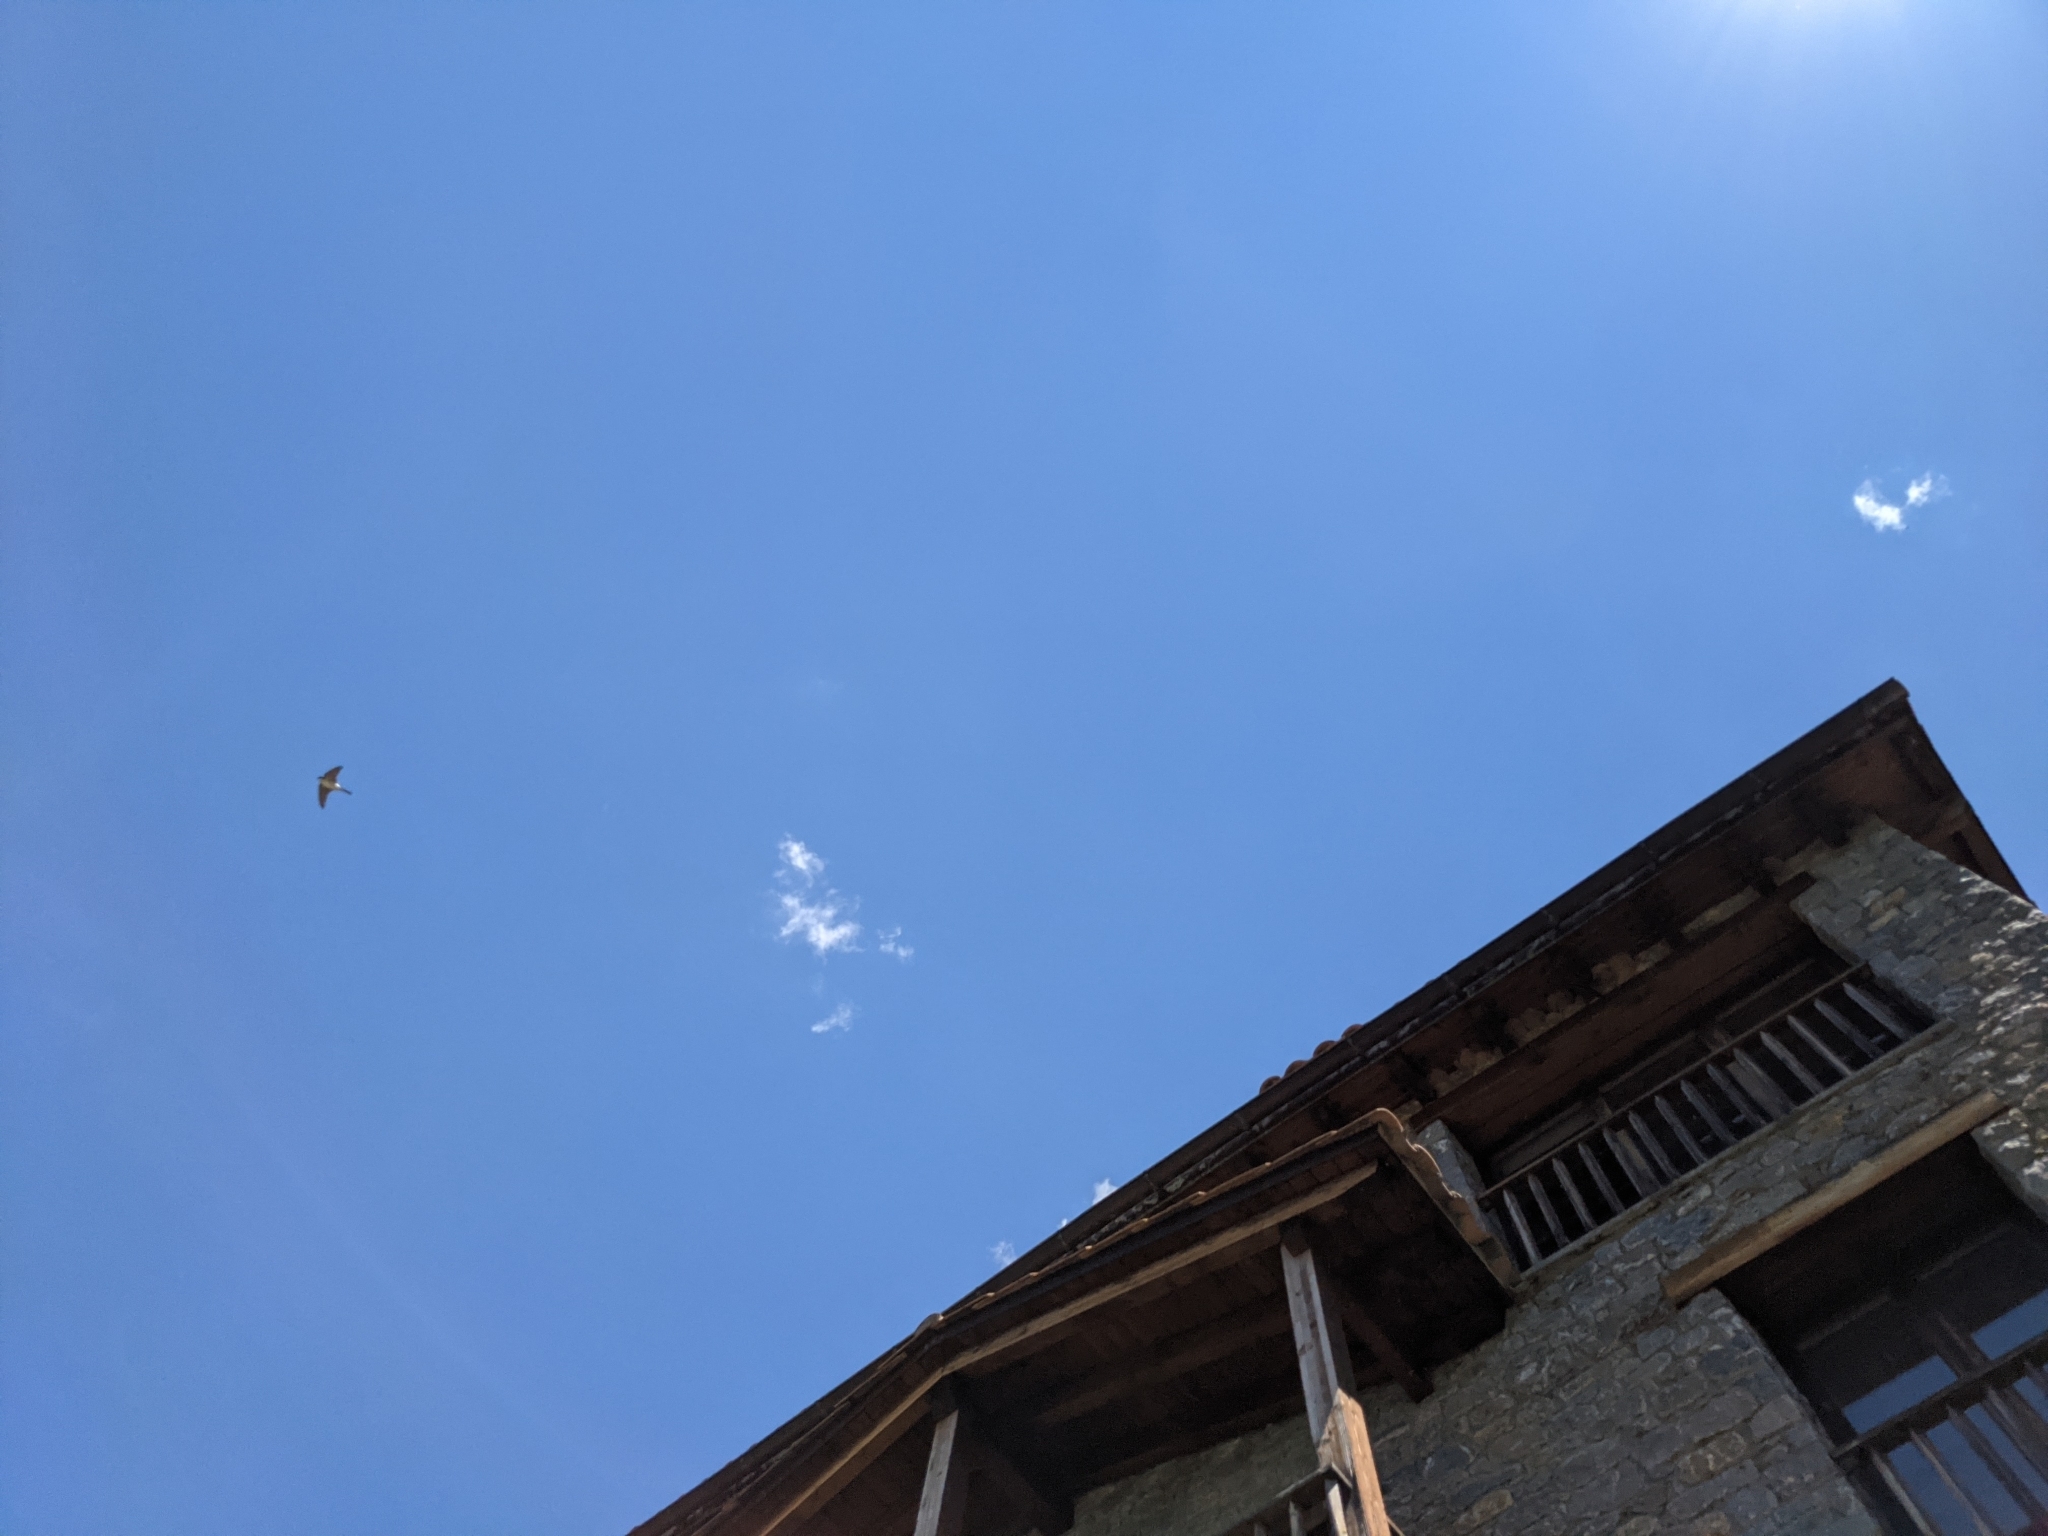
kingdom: Animalia
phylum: Chordata
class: Aves
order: Passeriformes
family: Hirundinidae
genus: Delichon
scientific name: Delichon urbicum
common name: Common house martin
